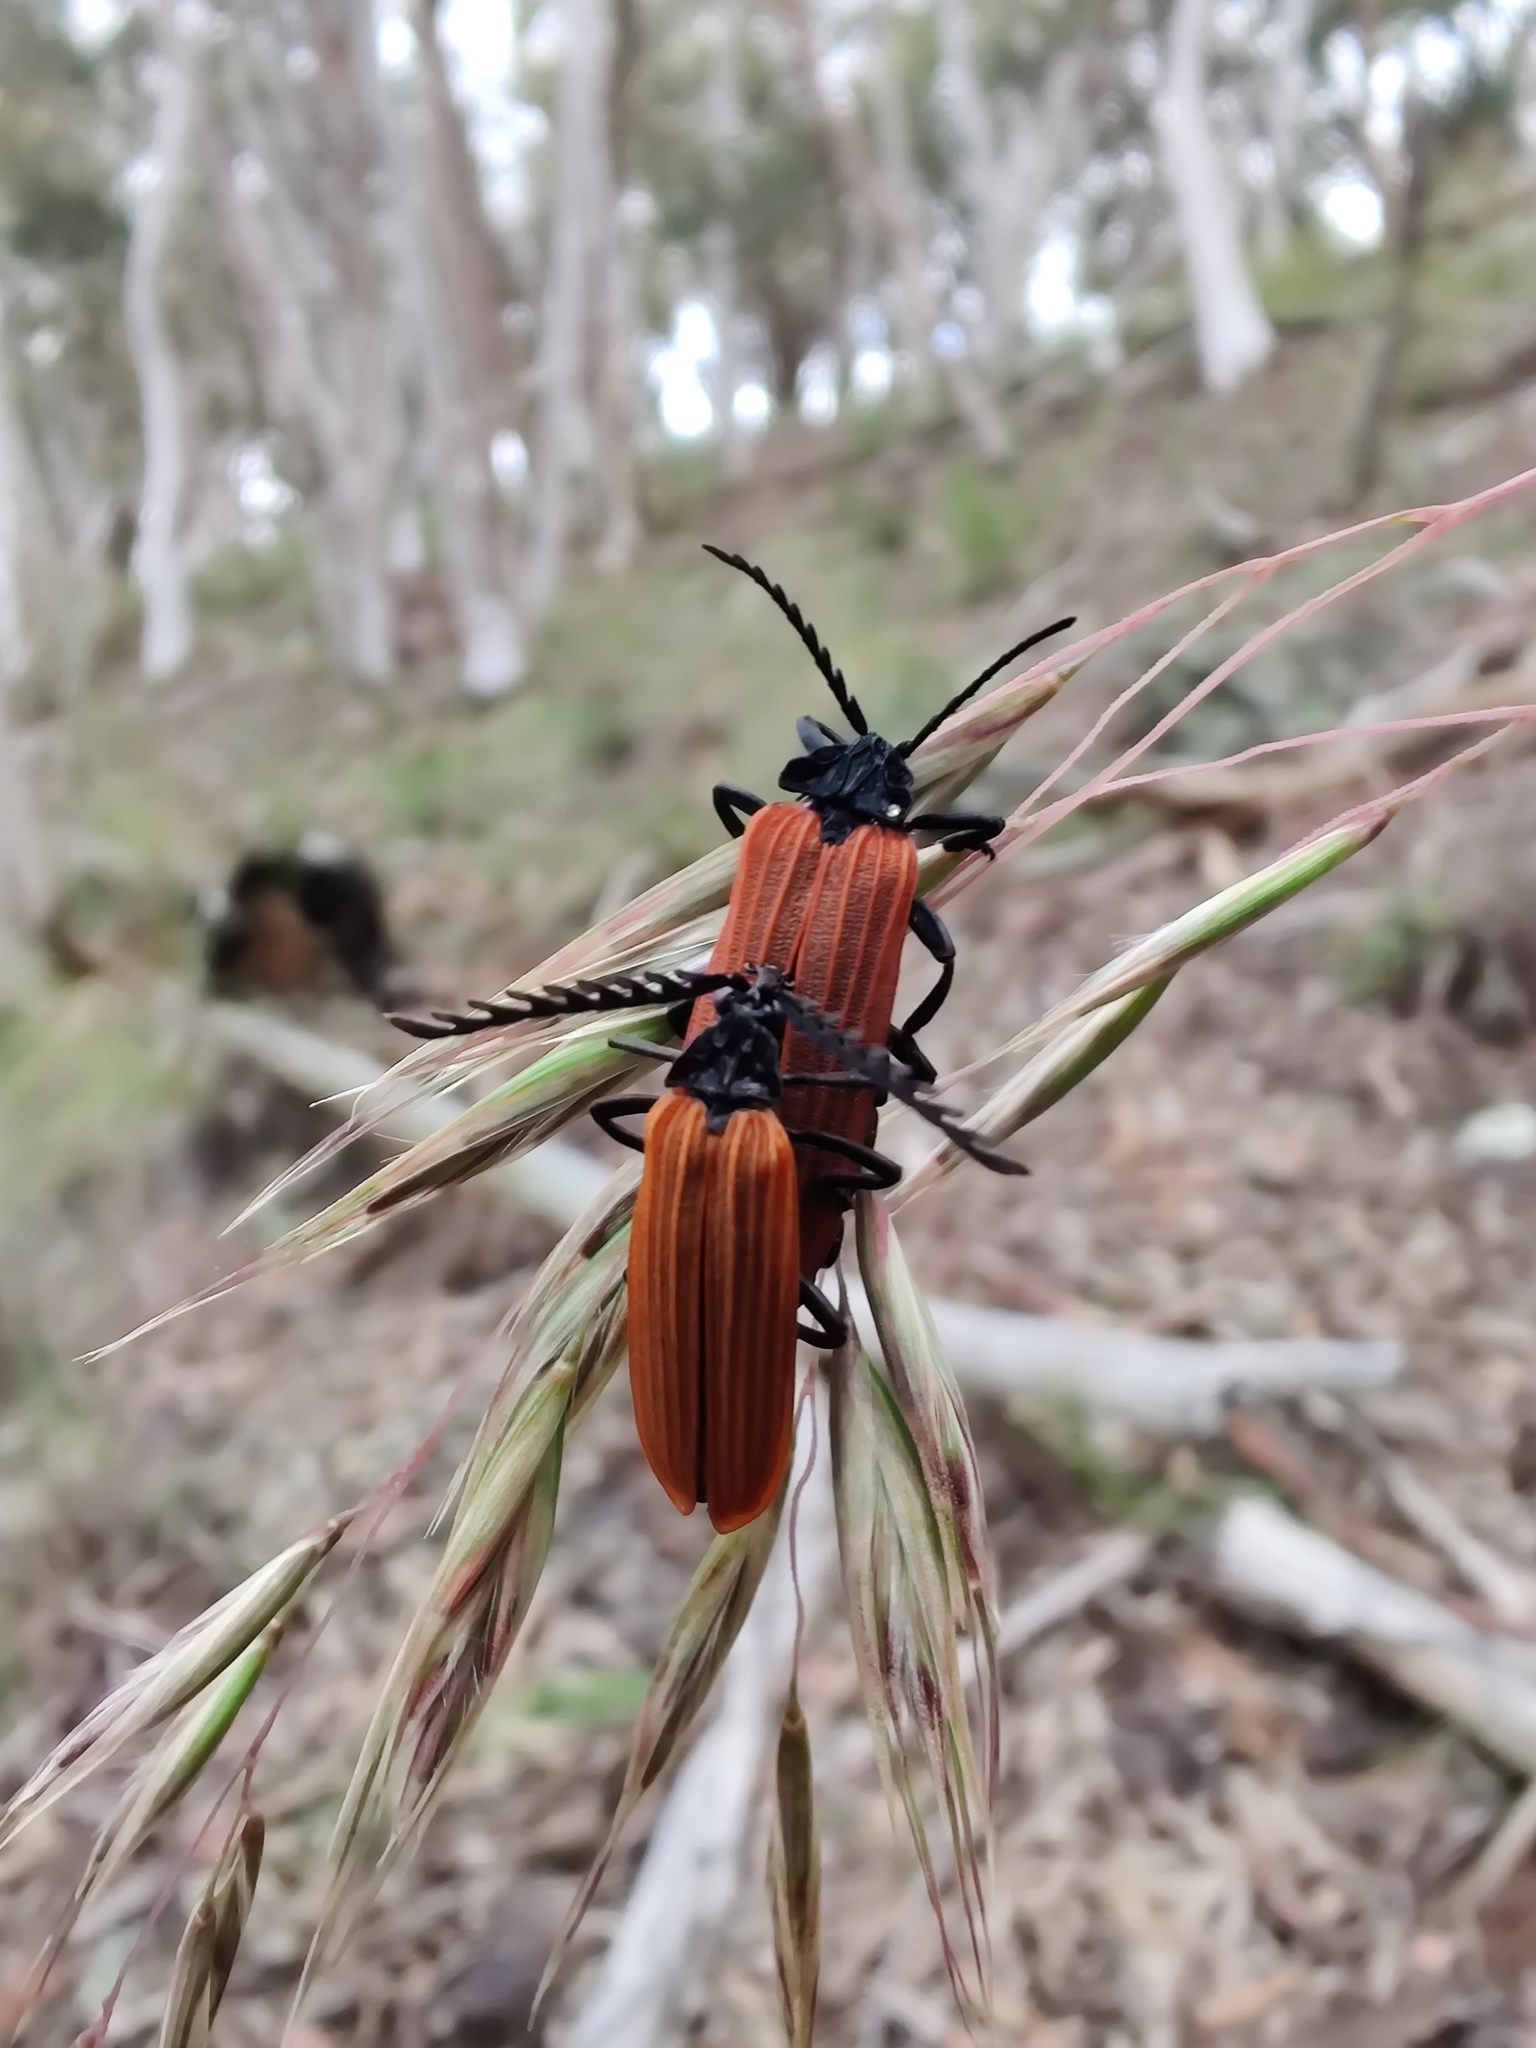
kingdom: Animalia
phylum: Arthropoda
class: Insecta
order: Coleoptera
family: Lycidae
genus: Porrostoma
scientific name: Porrostoma rhipidium
